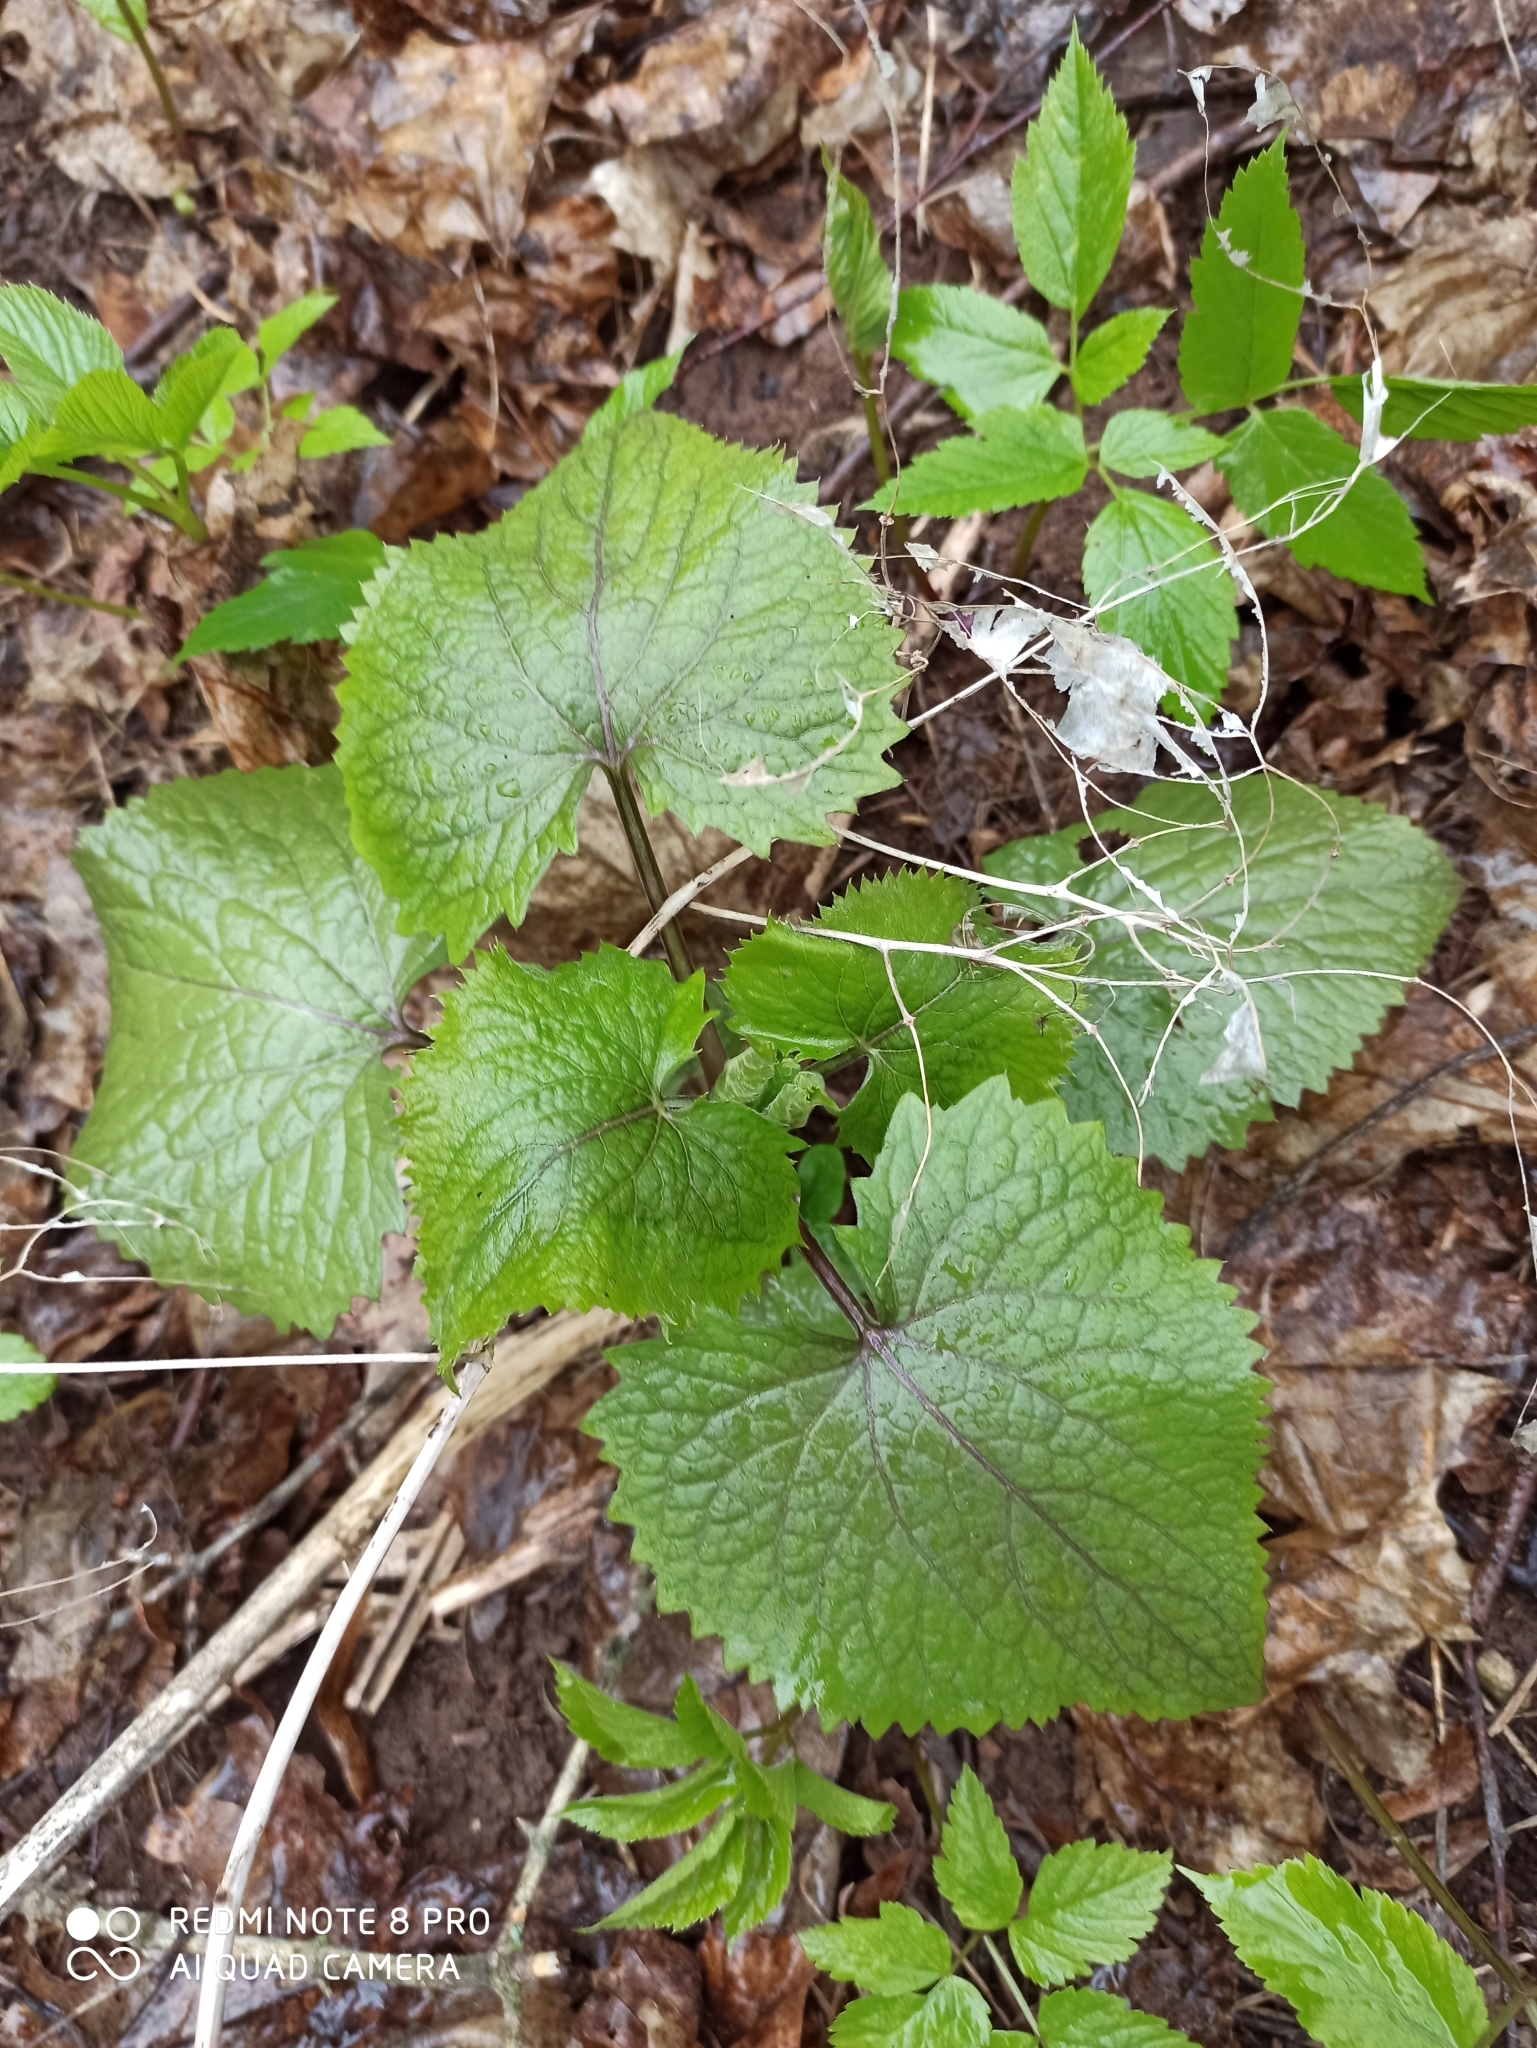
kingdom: Plantae
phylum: Tracheophyta
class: Magnoliopsida
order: Brassicales
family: Brassicaceae
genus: Lunaria
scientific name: Lunaria rediviva
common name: Perennial honesty
